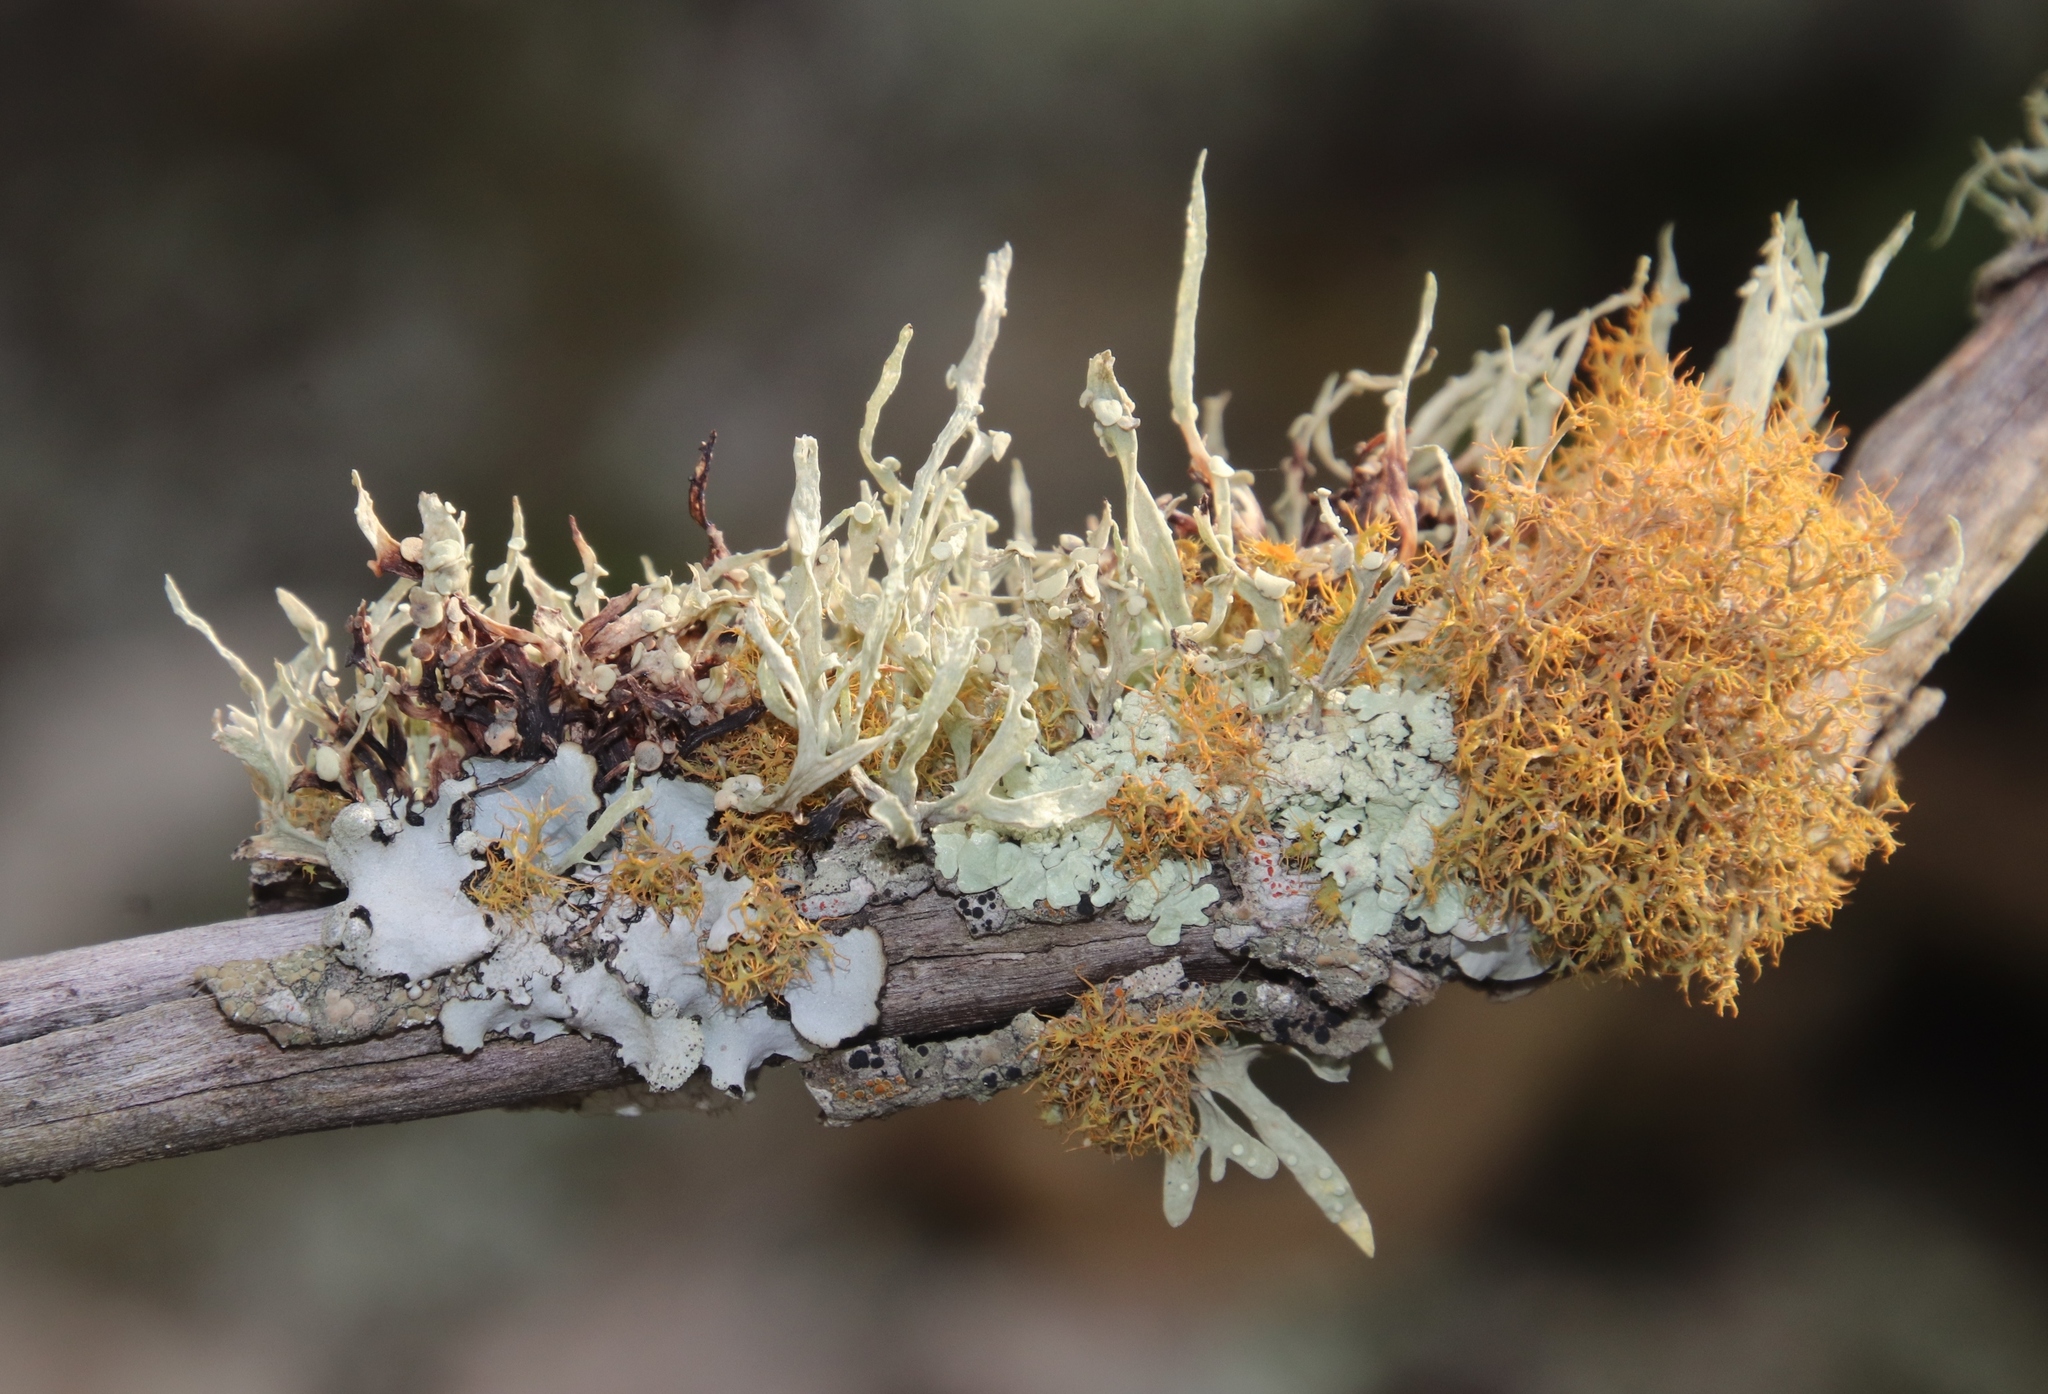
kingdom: Fungi
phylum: Ascomycota
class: Lecanoromycetes
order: Teloschistales
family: Teloschistaceae
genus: Teloschistes
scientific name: Teloschistes capensis
